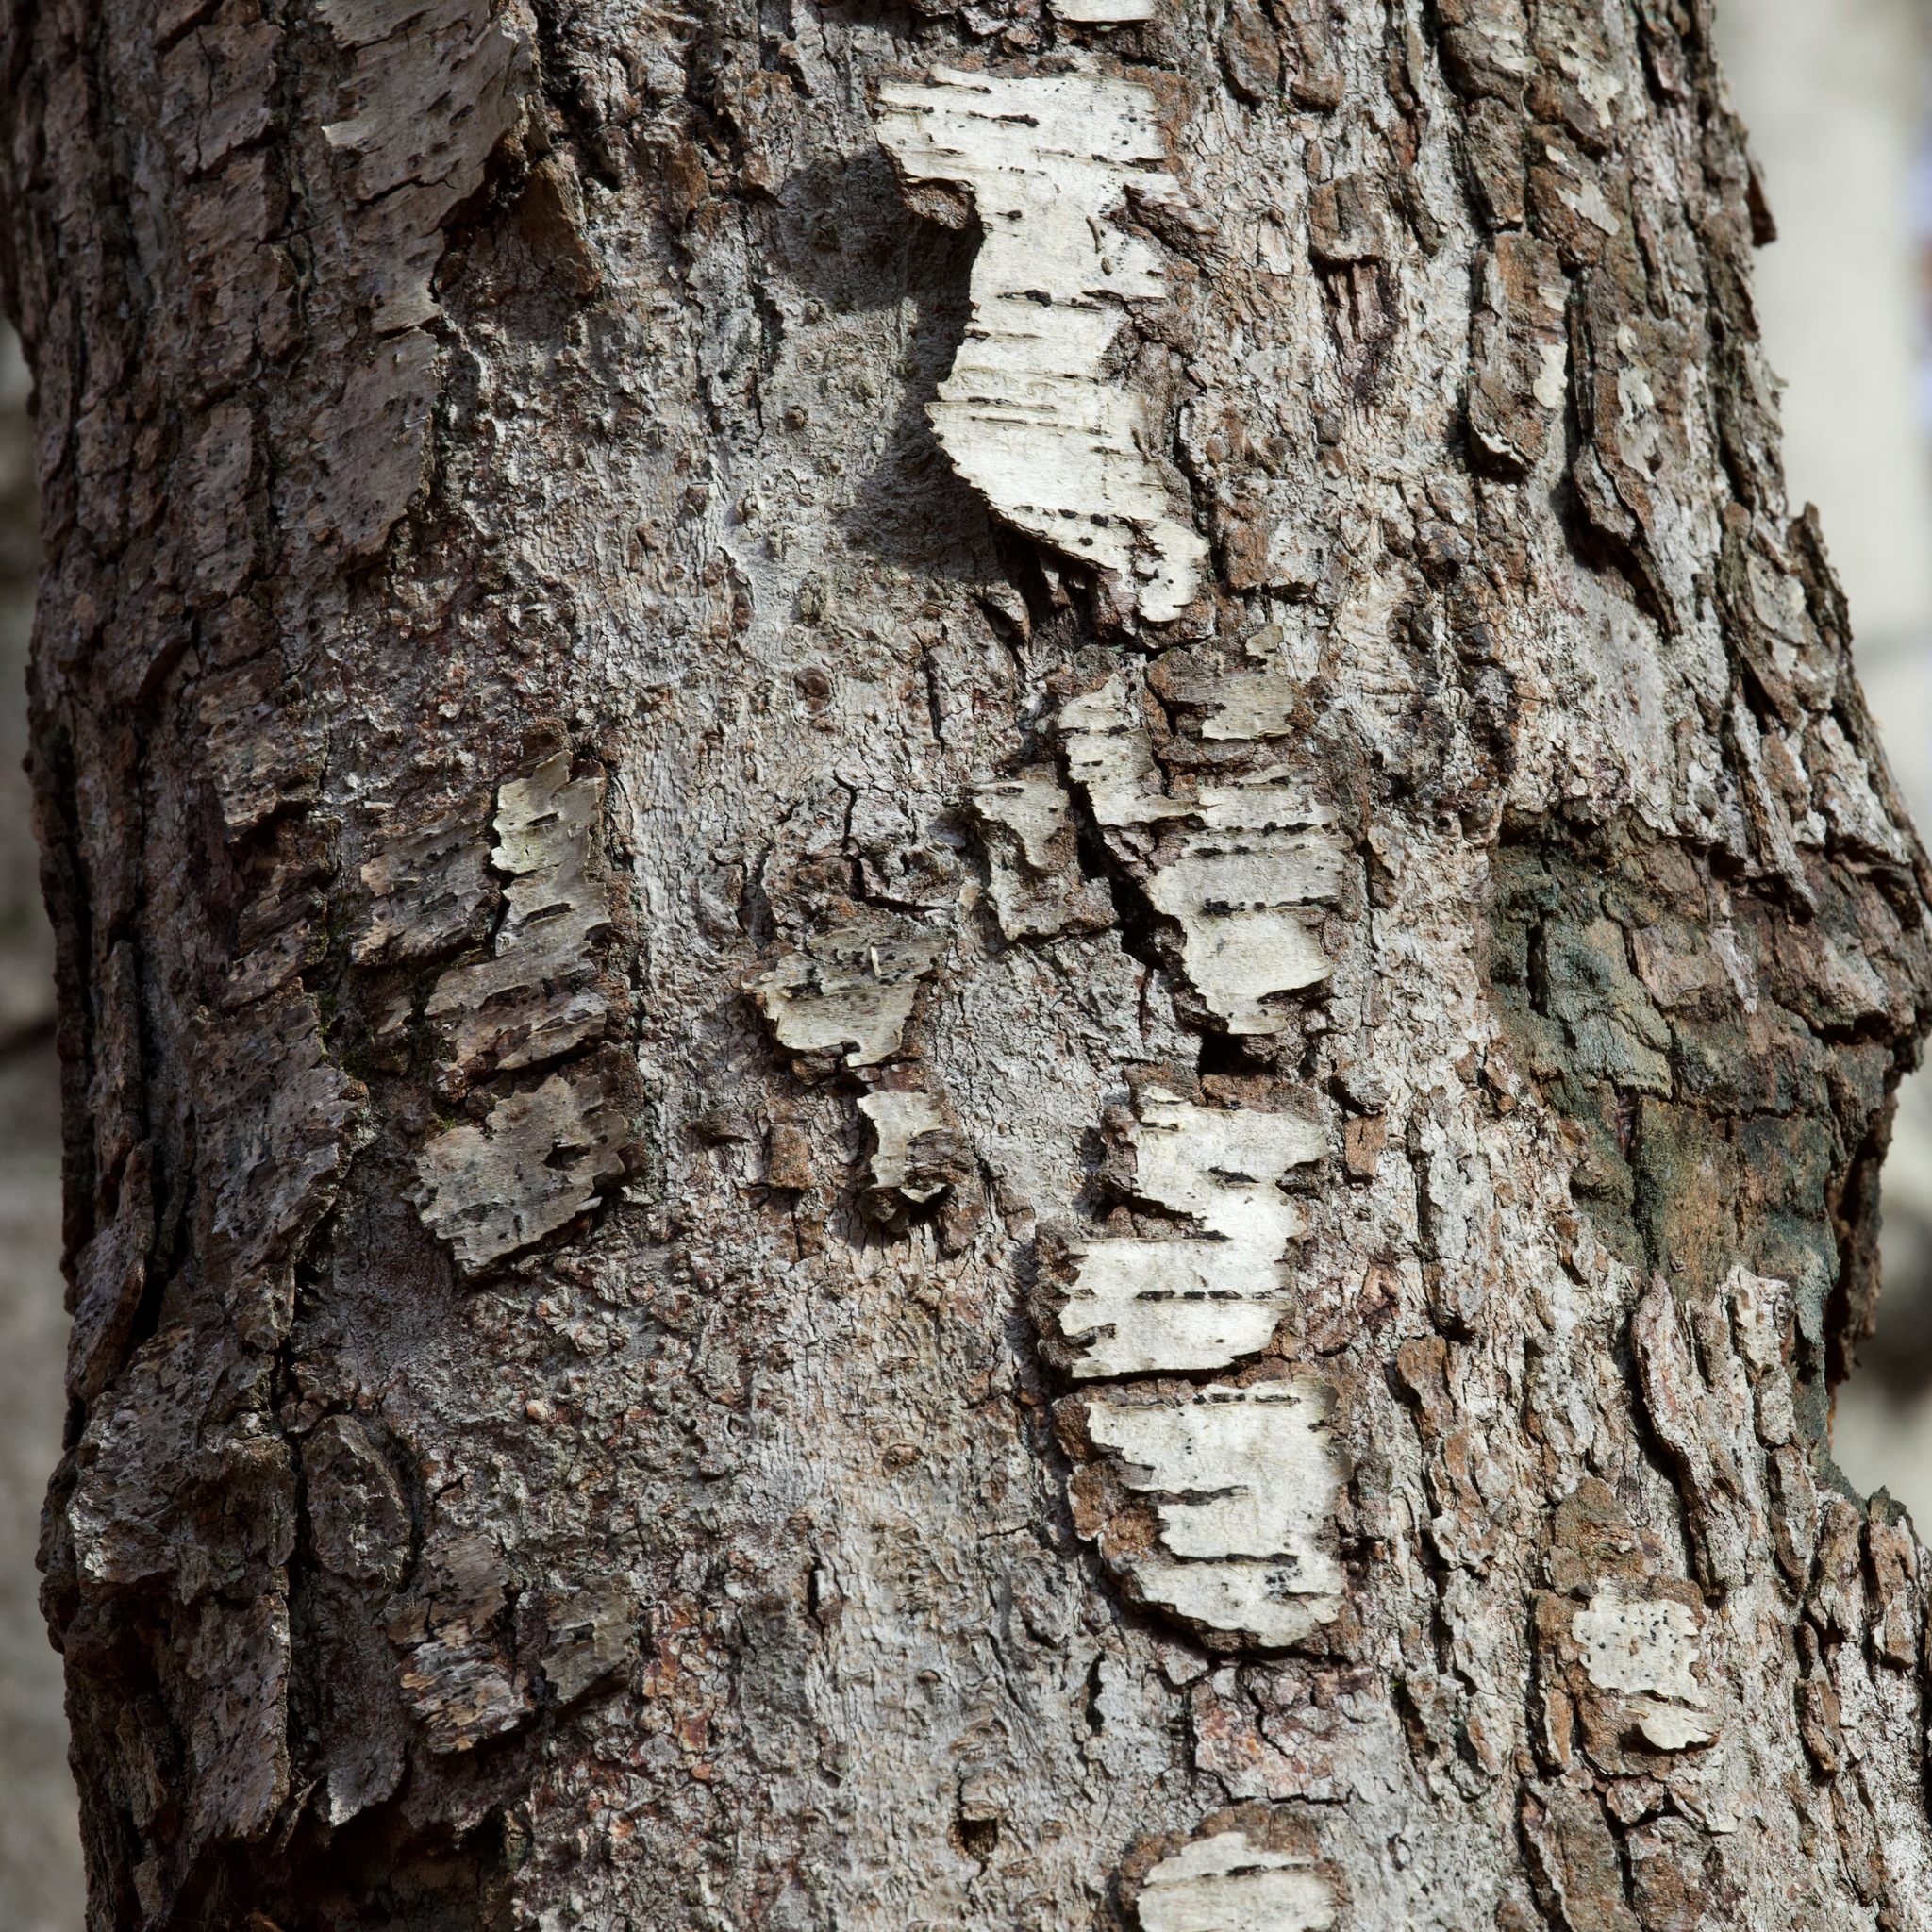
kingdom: Plantae
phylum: Tracheophyta
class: Magnoliopsida
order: Fagales
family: Betulaceae
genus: Betula
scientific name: Betula lenta
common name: Black birch
